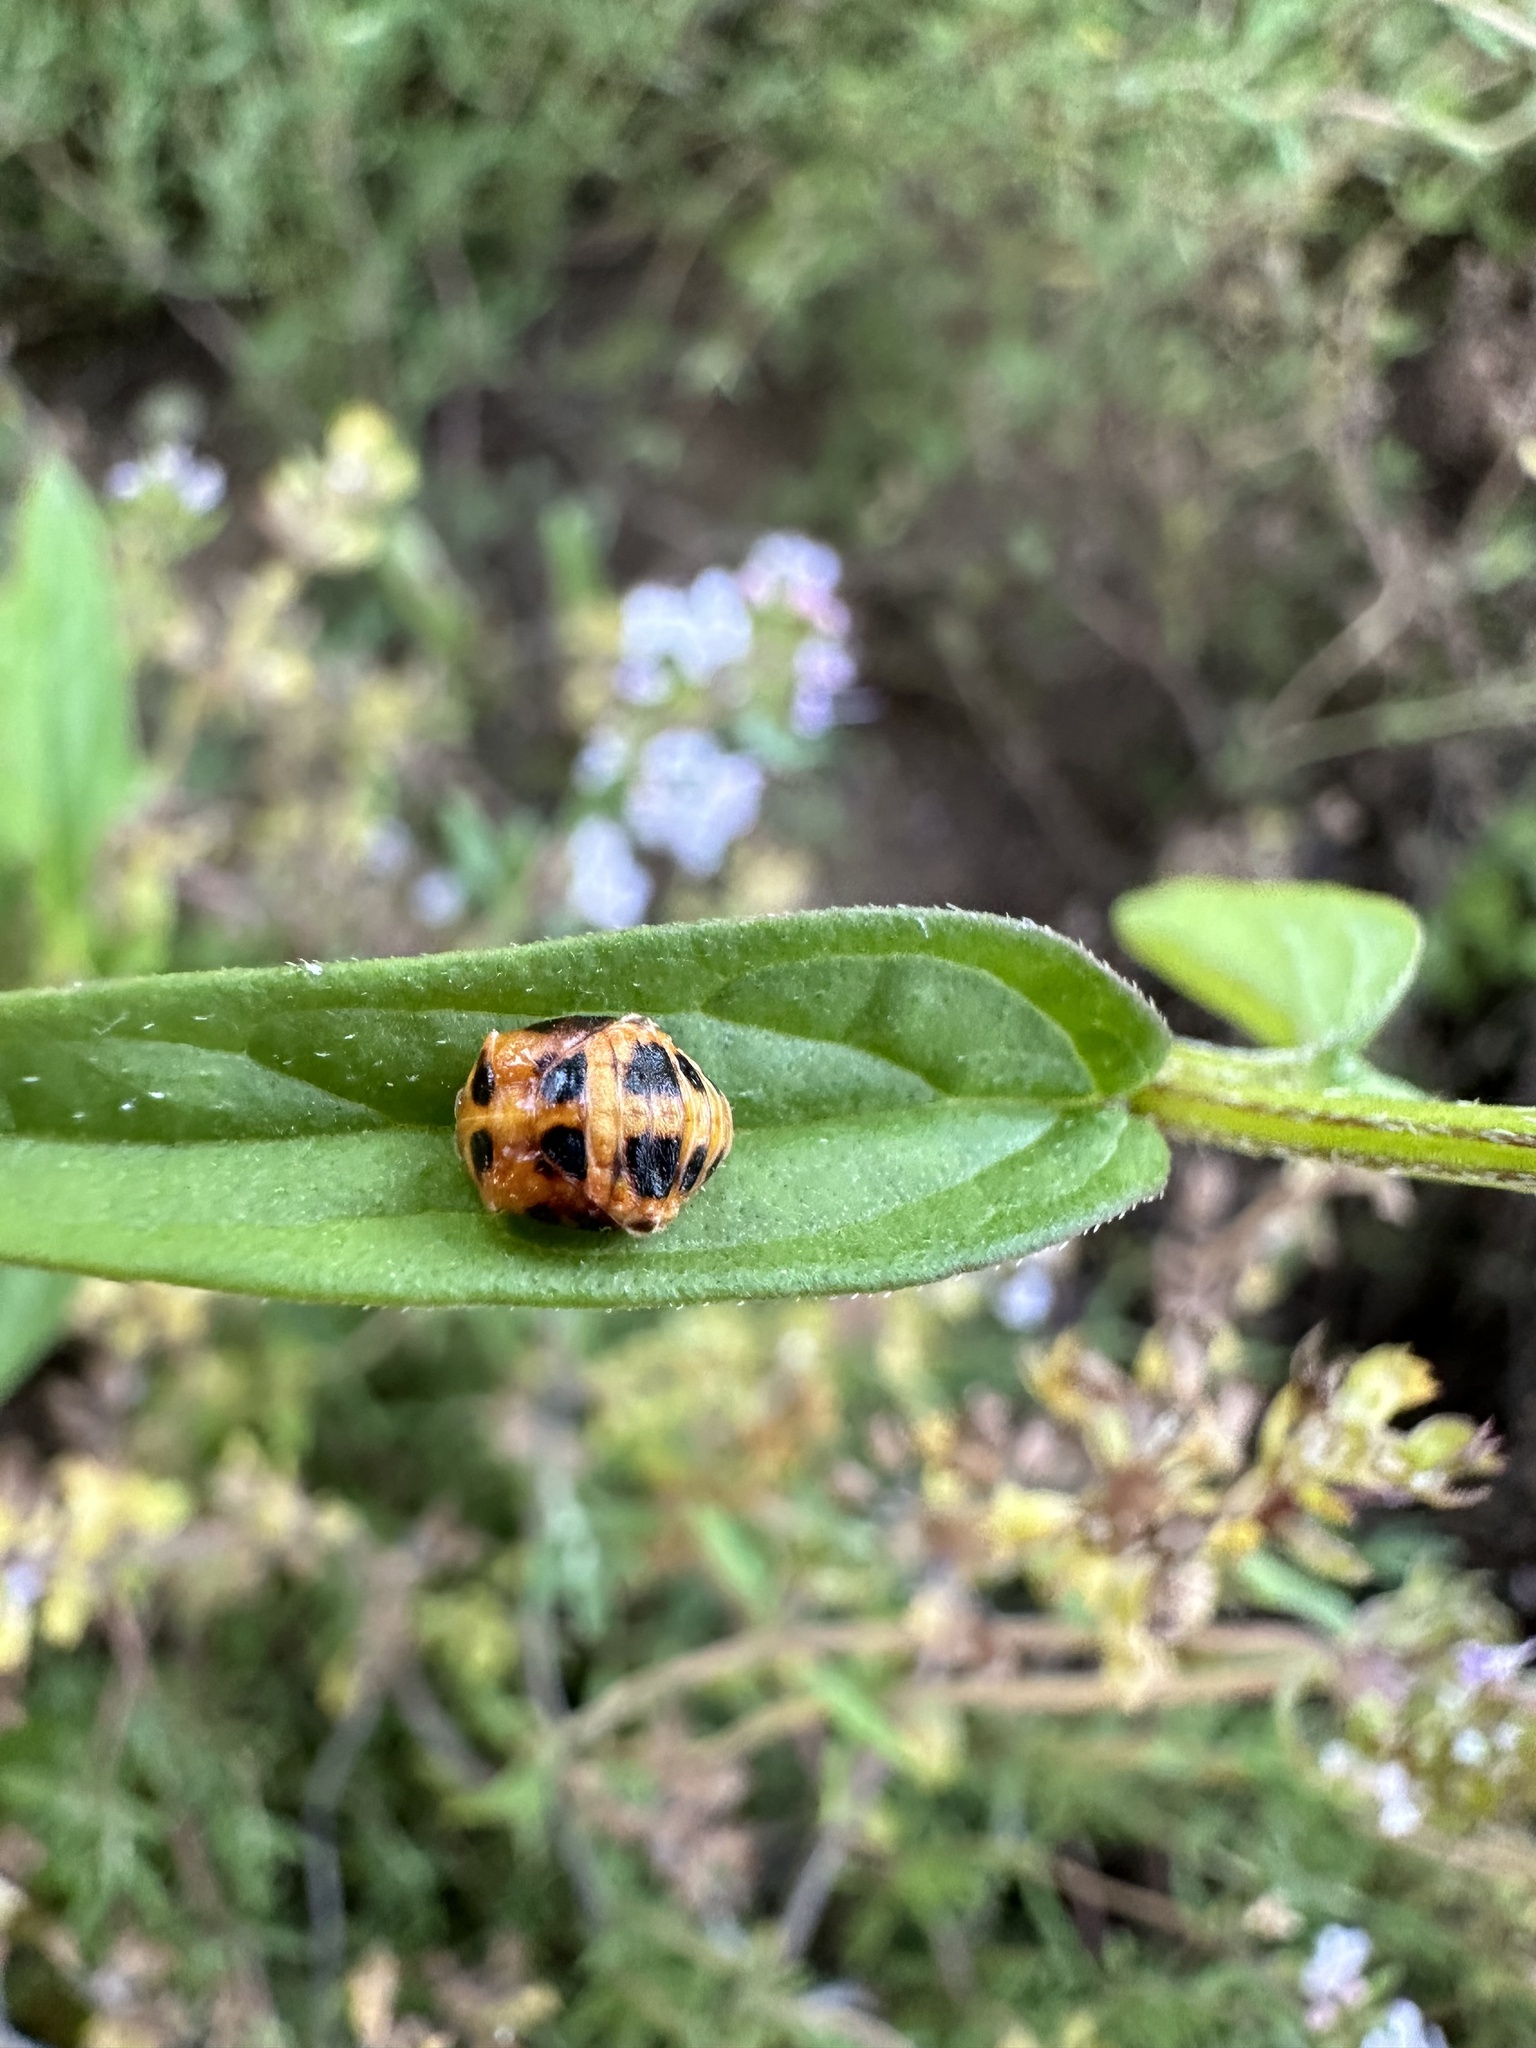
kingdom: Animalia
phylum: Arthropoda
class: Insecta
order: Coleoptera
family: Coccinellidae
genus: Harmonia
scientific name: Harmonia axyridis
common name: Harlequin ladybird
